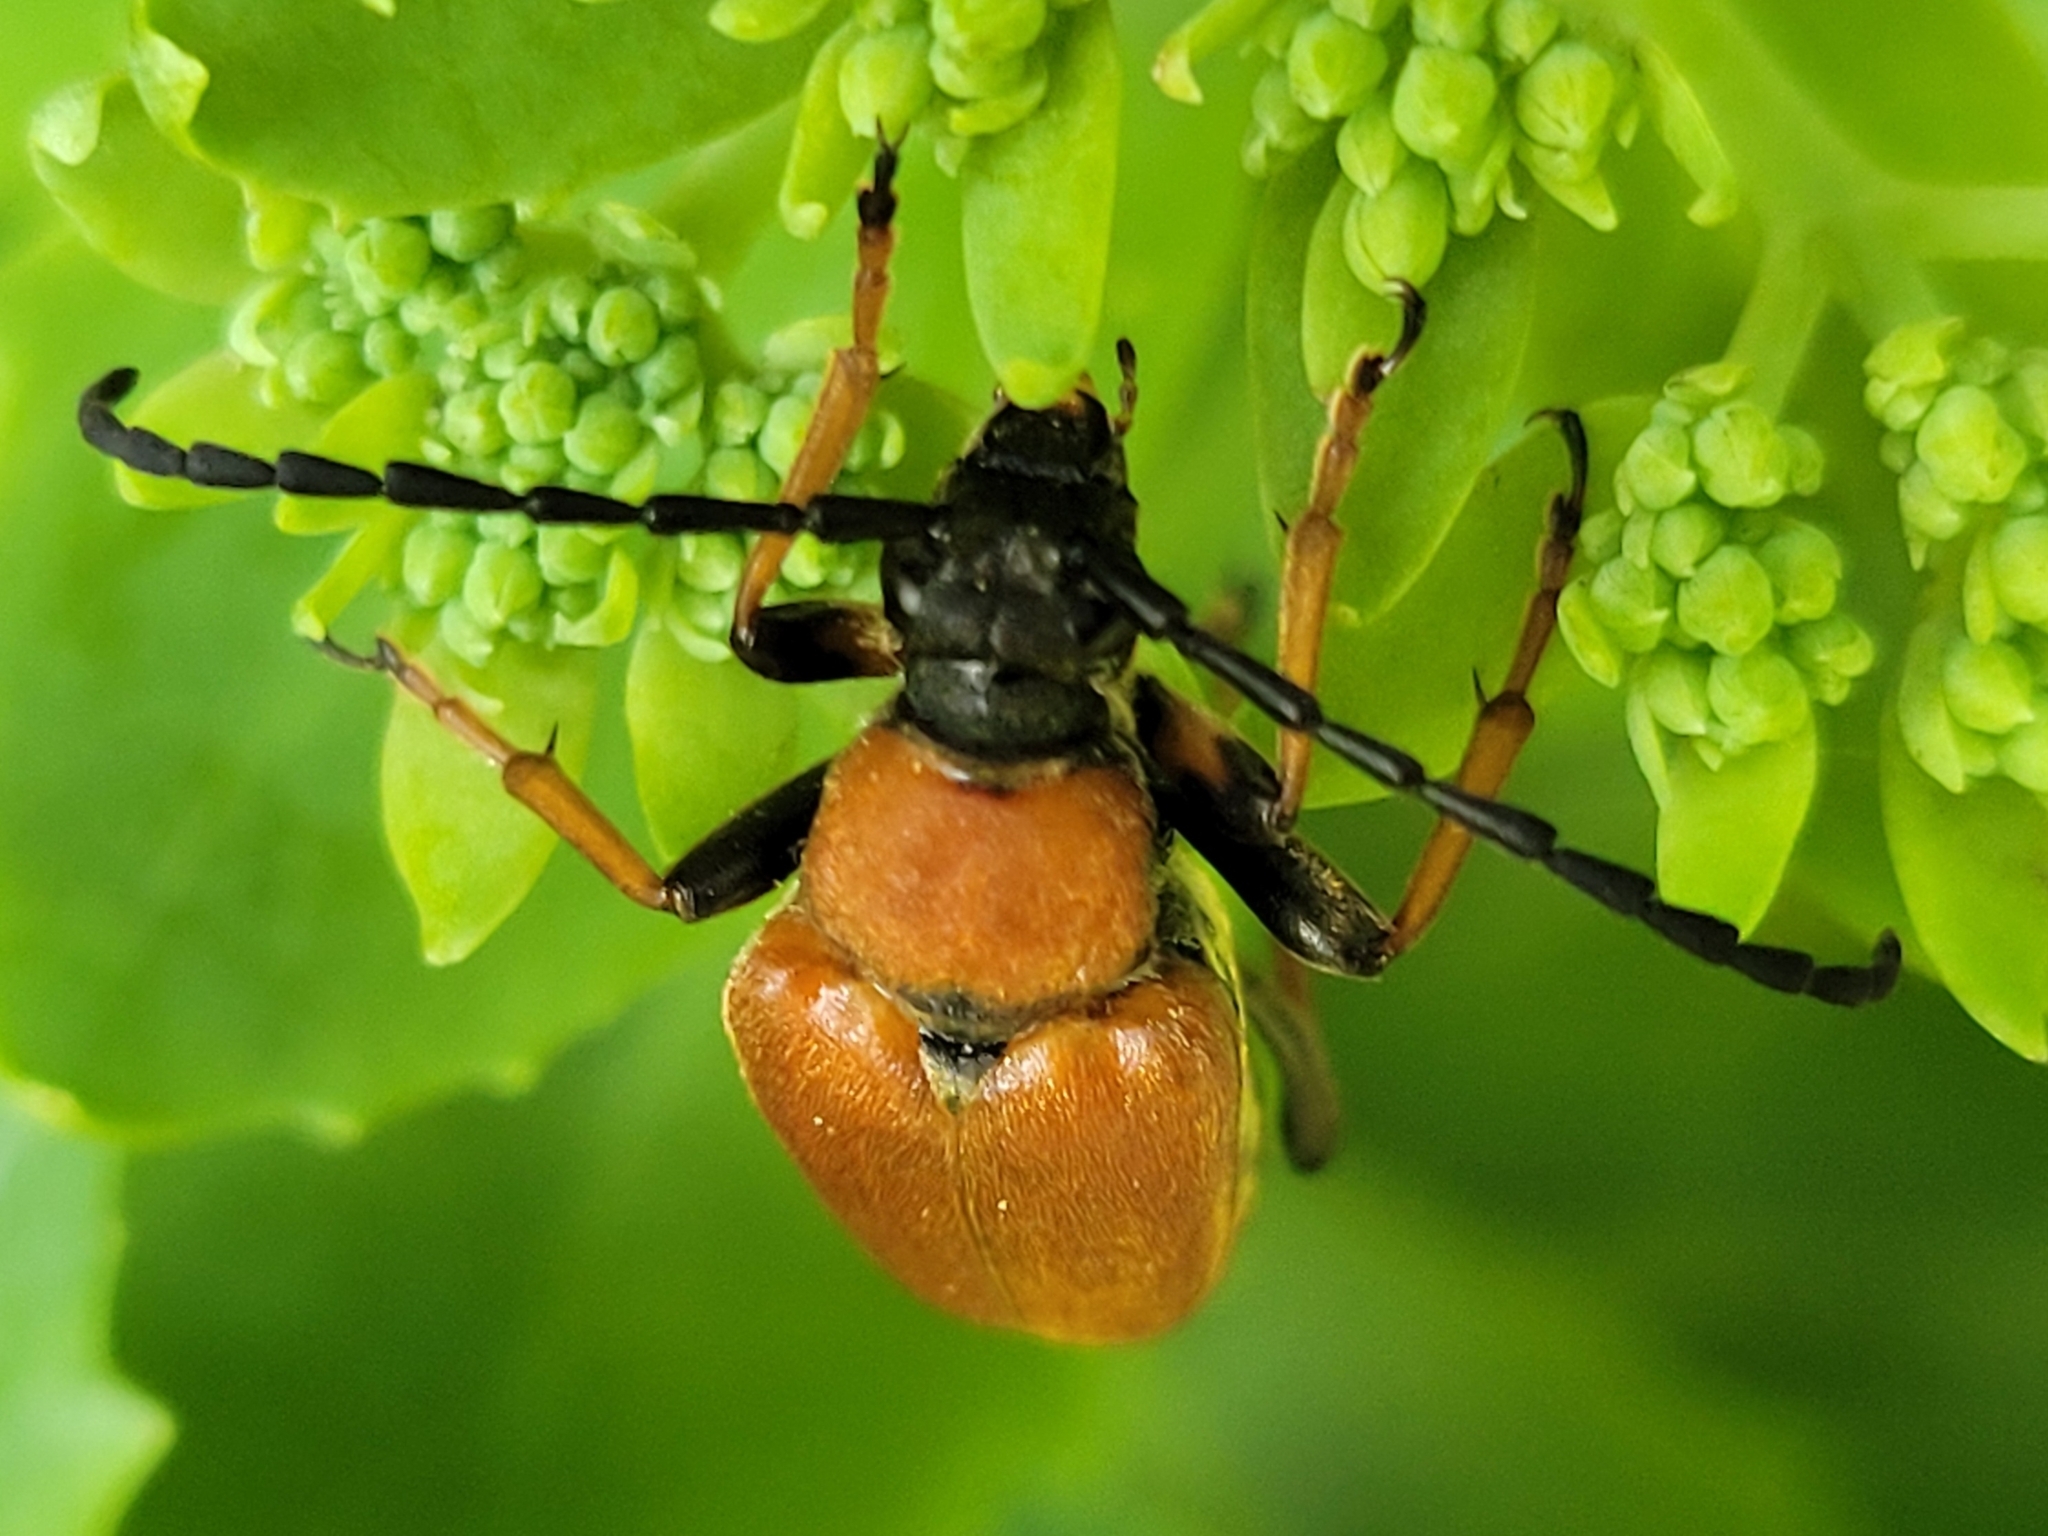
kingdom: Animalia
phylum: Arthropoda
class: Insecta
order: Coleoptera
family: Cerambycidae
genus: Stictoleptura
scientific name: Stictoleptura rubra
